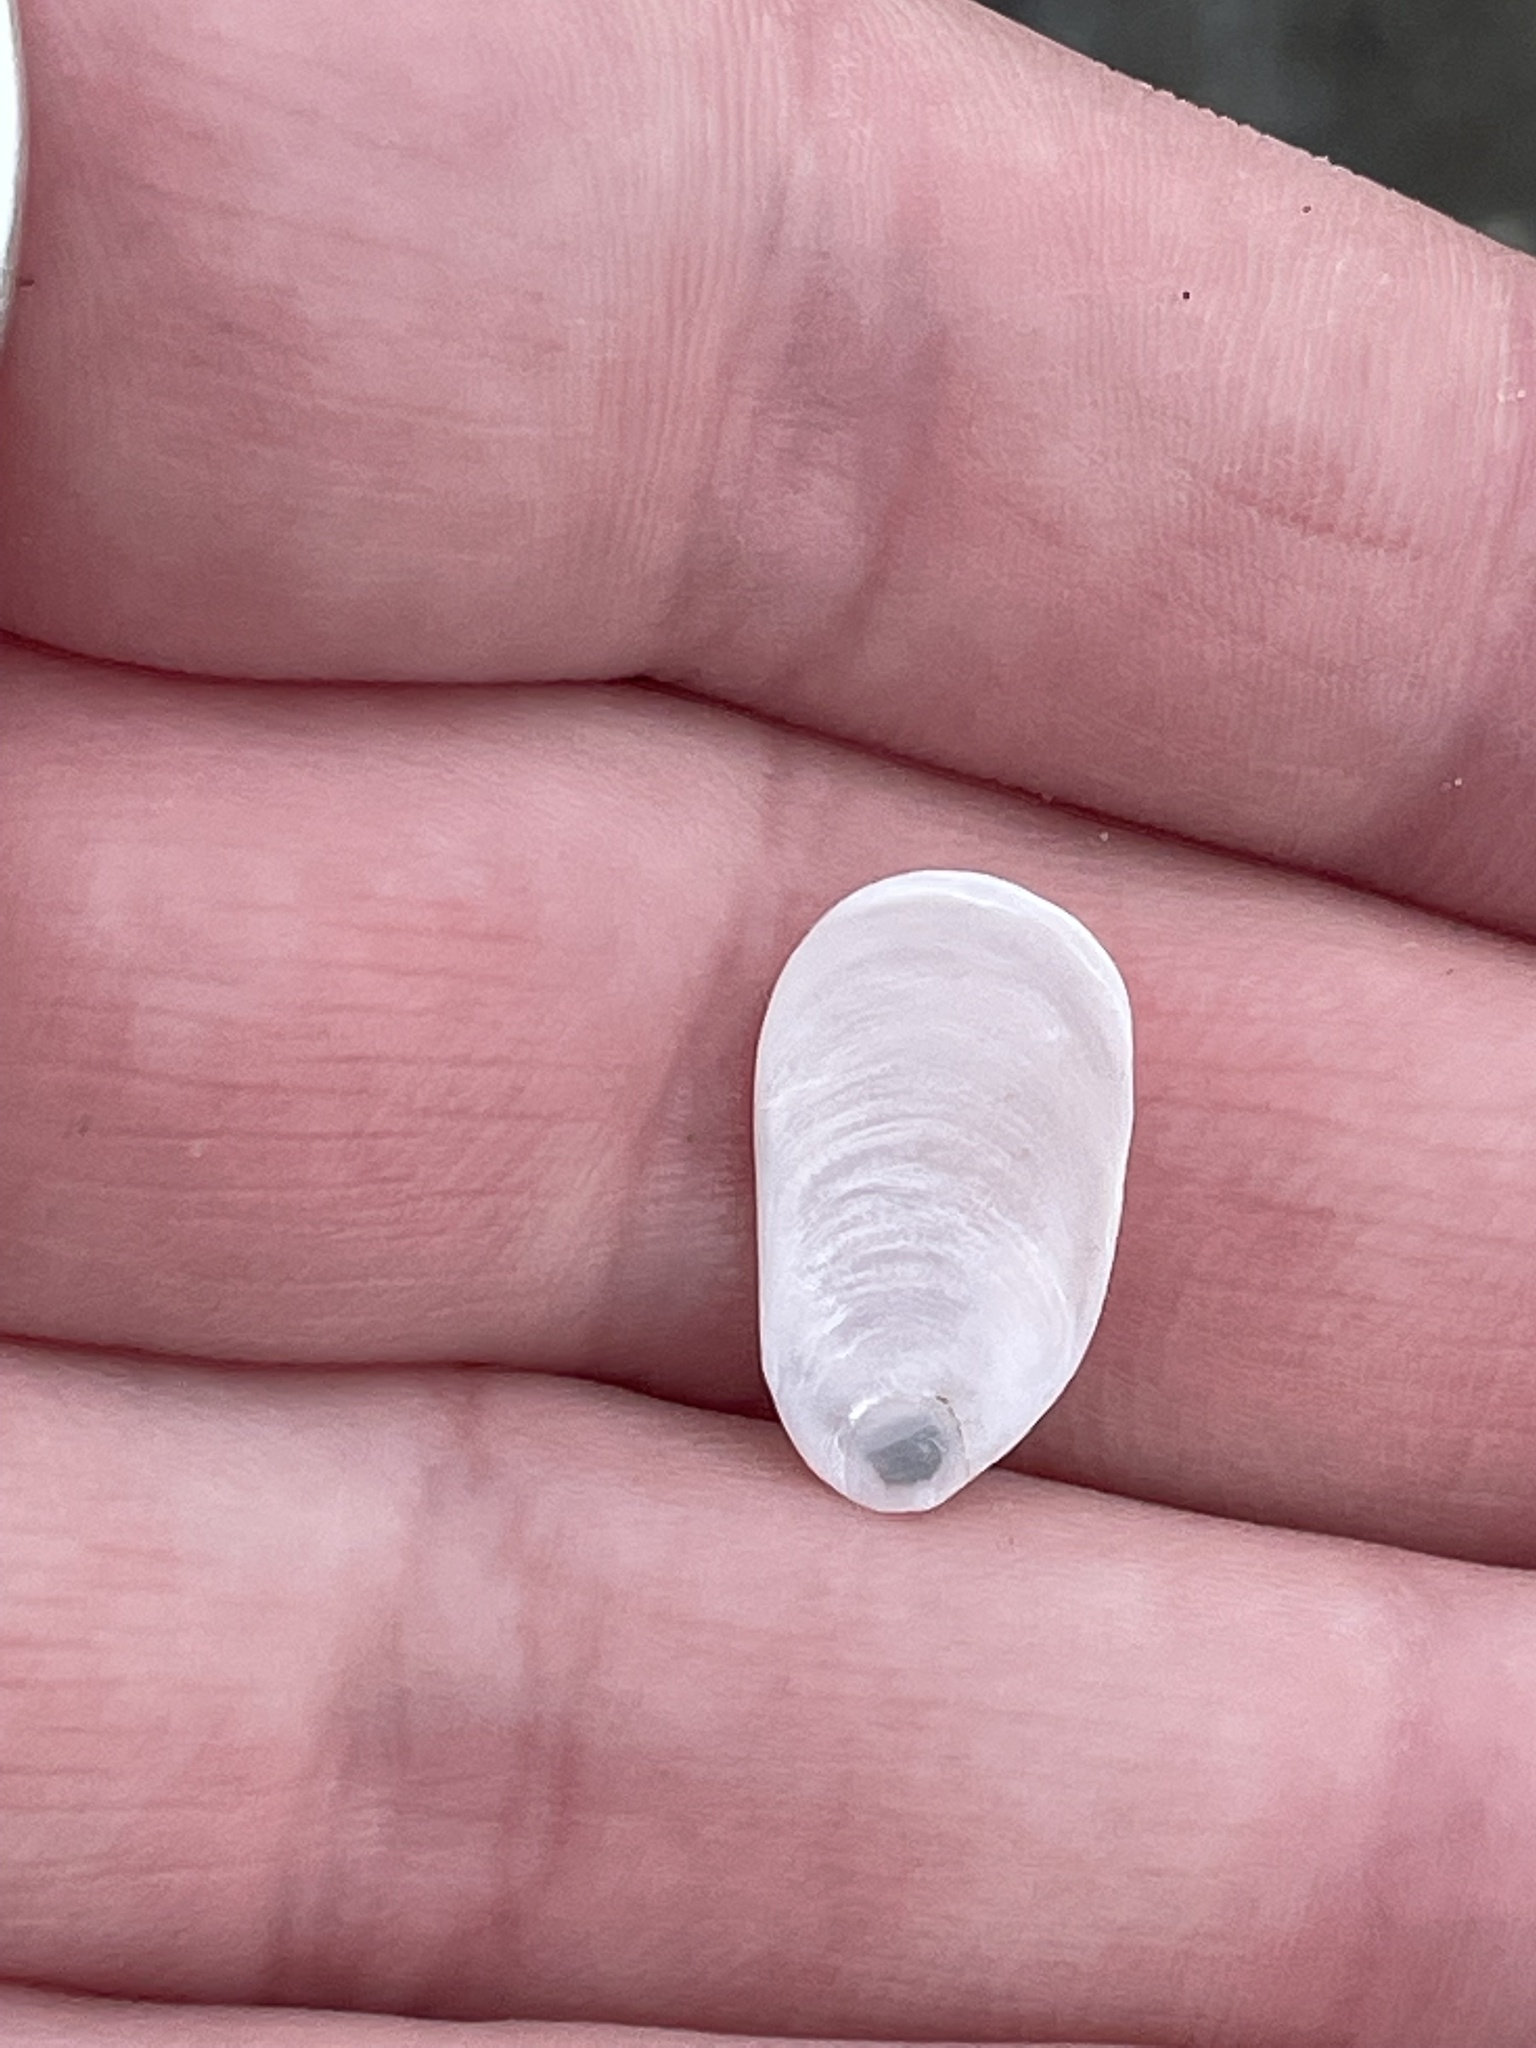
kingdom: Animalia
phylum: Mollusca
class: Gastropoda
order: Littorinimorpha
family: Calyptraeidae
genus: Crepidula
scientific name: Crepidula plana
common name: Eastern white slippersnail
